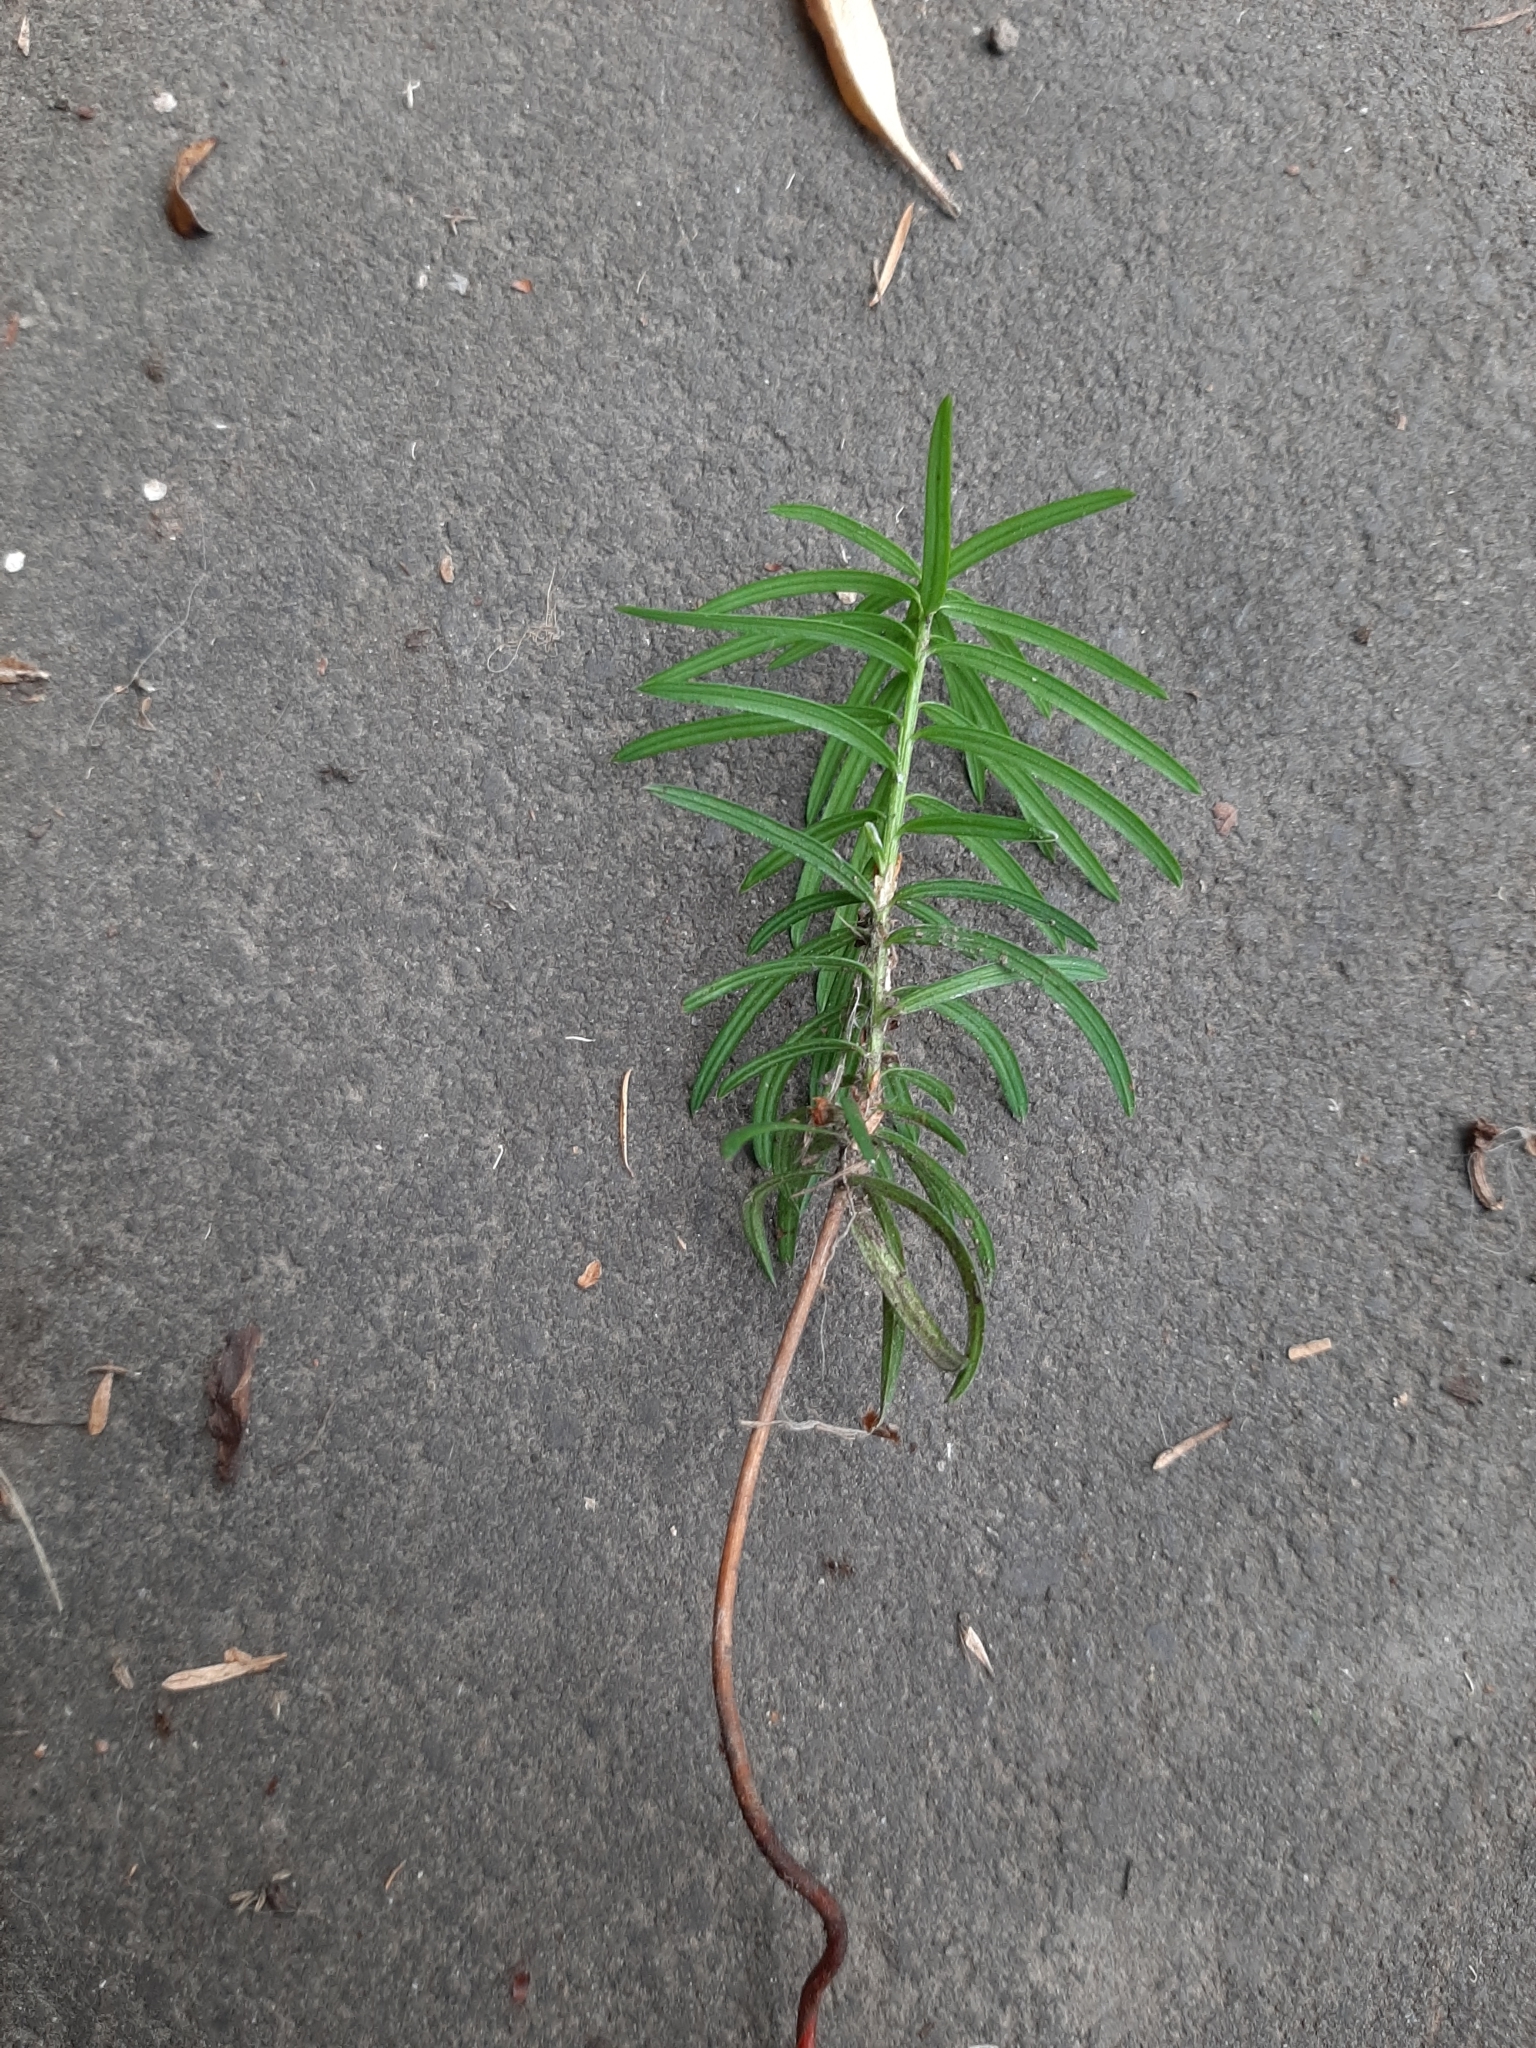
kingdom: Plantae
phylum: Tracheophyta
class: Pinopsida
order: Pinales
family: Taxaceae
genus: Taxus
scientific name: Taxus baccata
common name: Yew
